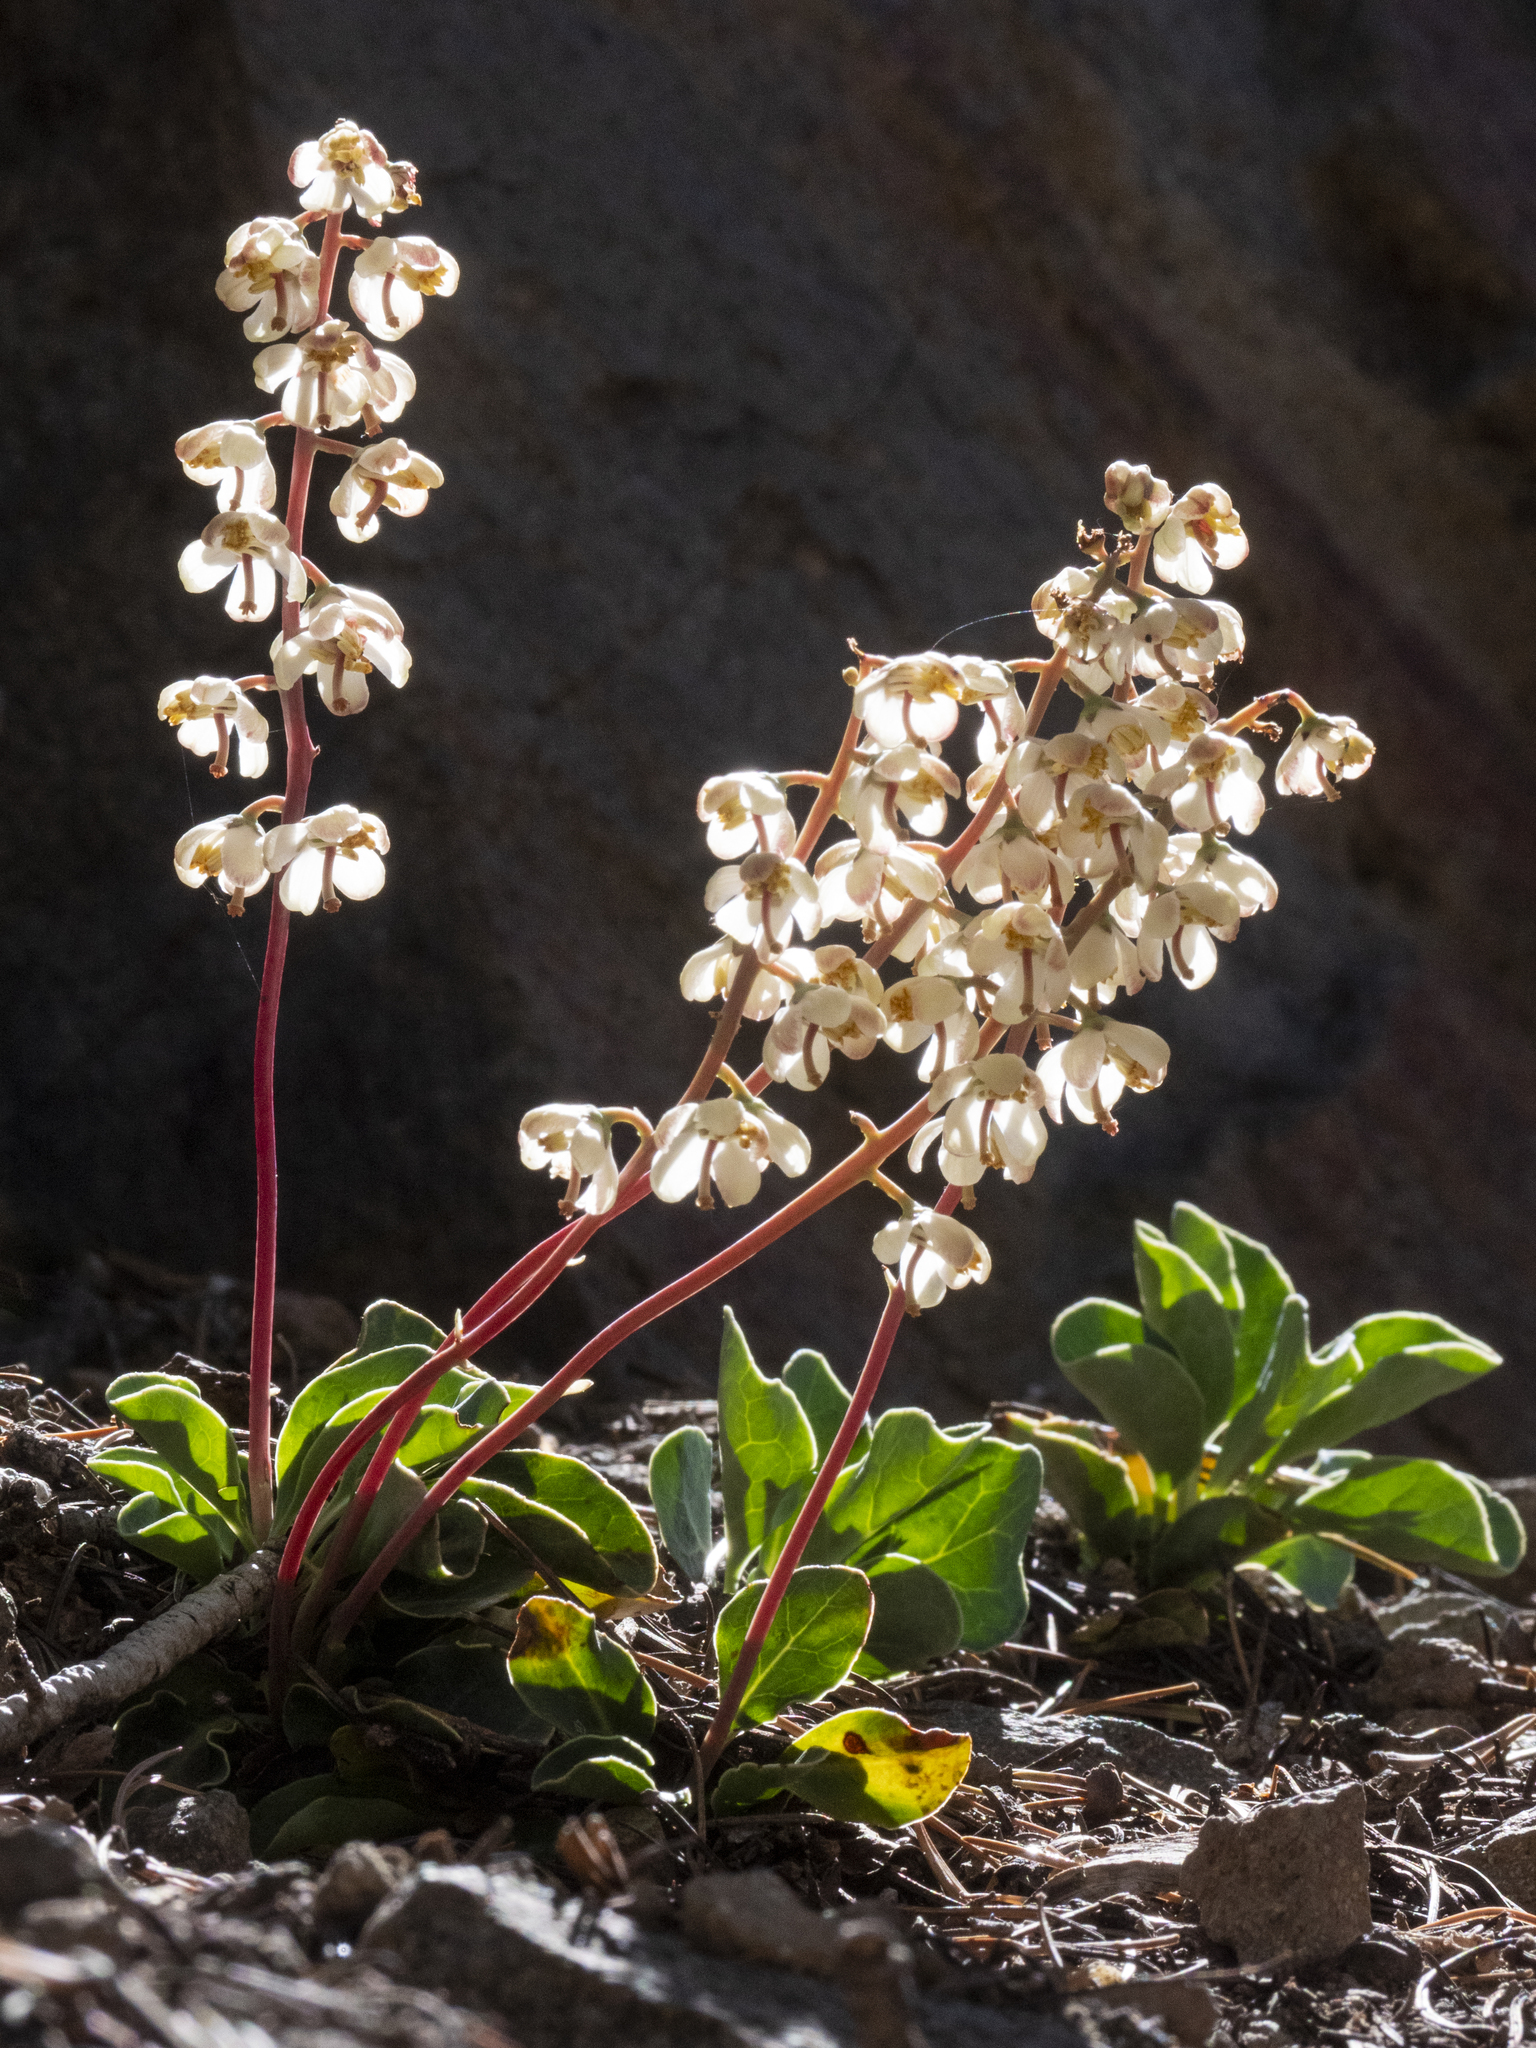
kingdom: Plantae
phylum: Tracheophyta
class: Magnoliopsida
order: Ericales
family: Ericaceae
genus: Pyrola
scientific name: Pyrola dentata
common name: Tooth-leaved wintergreen
